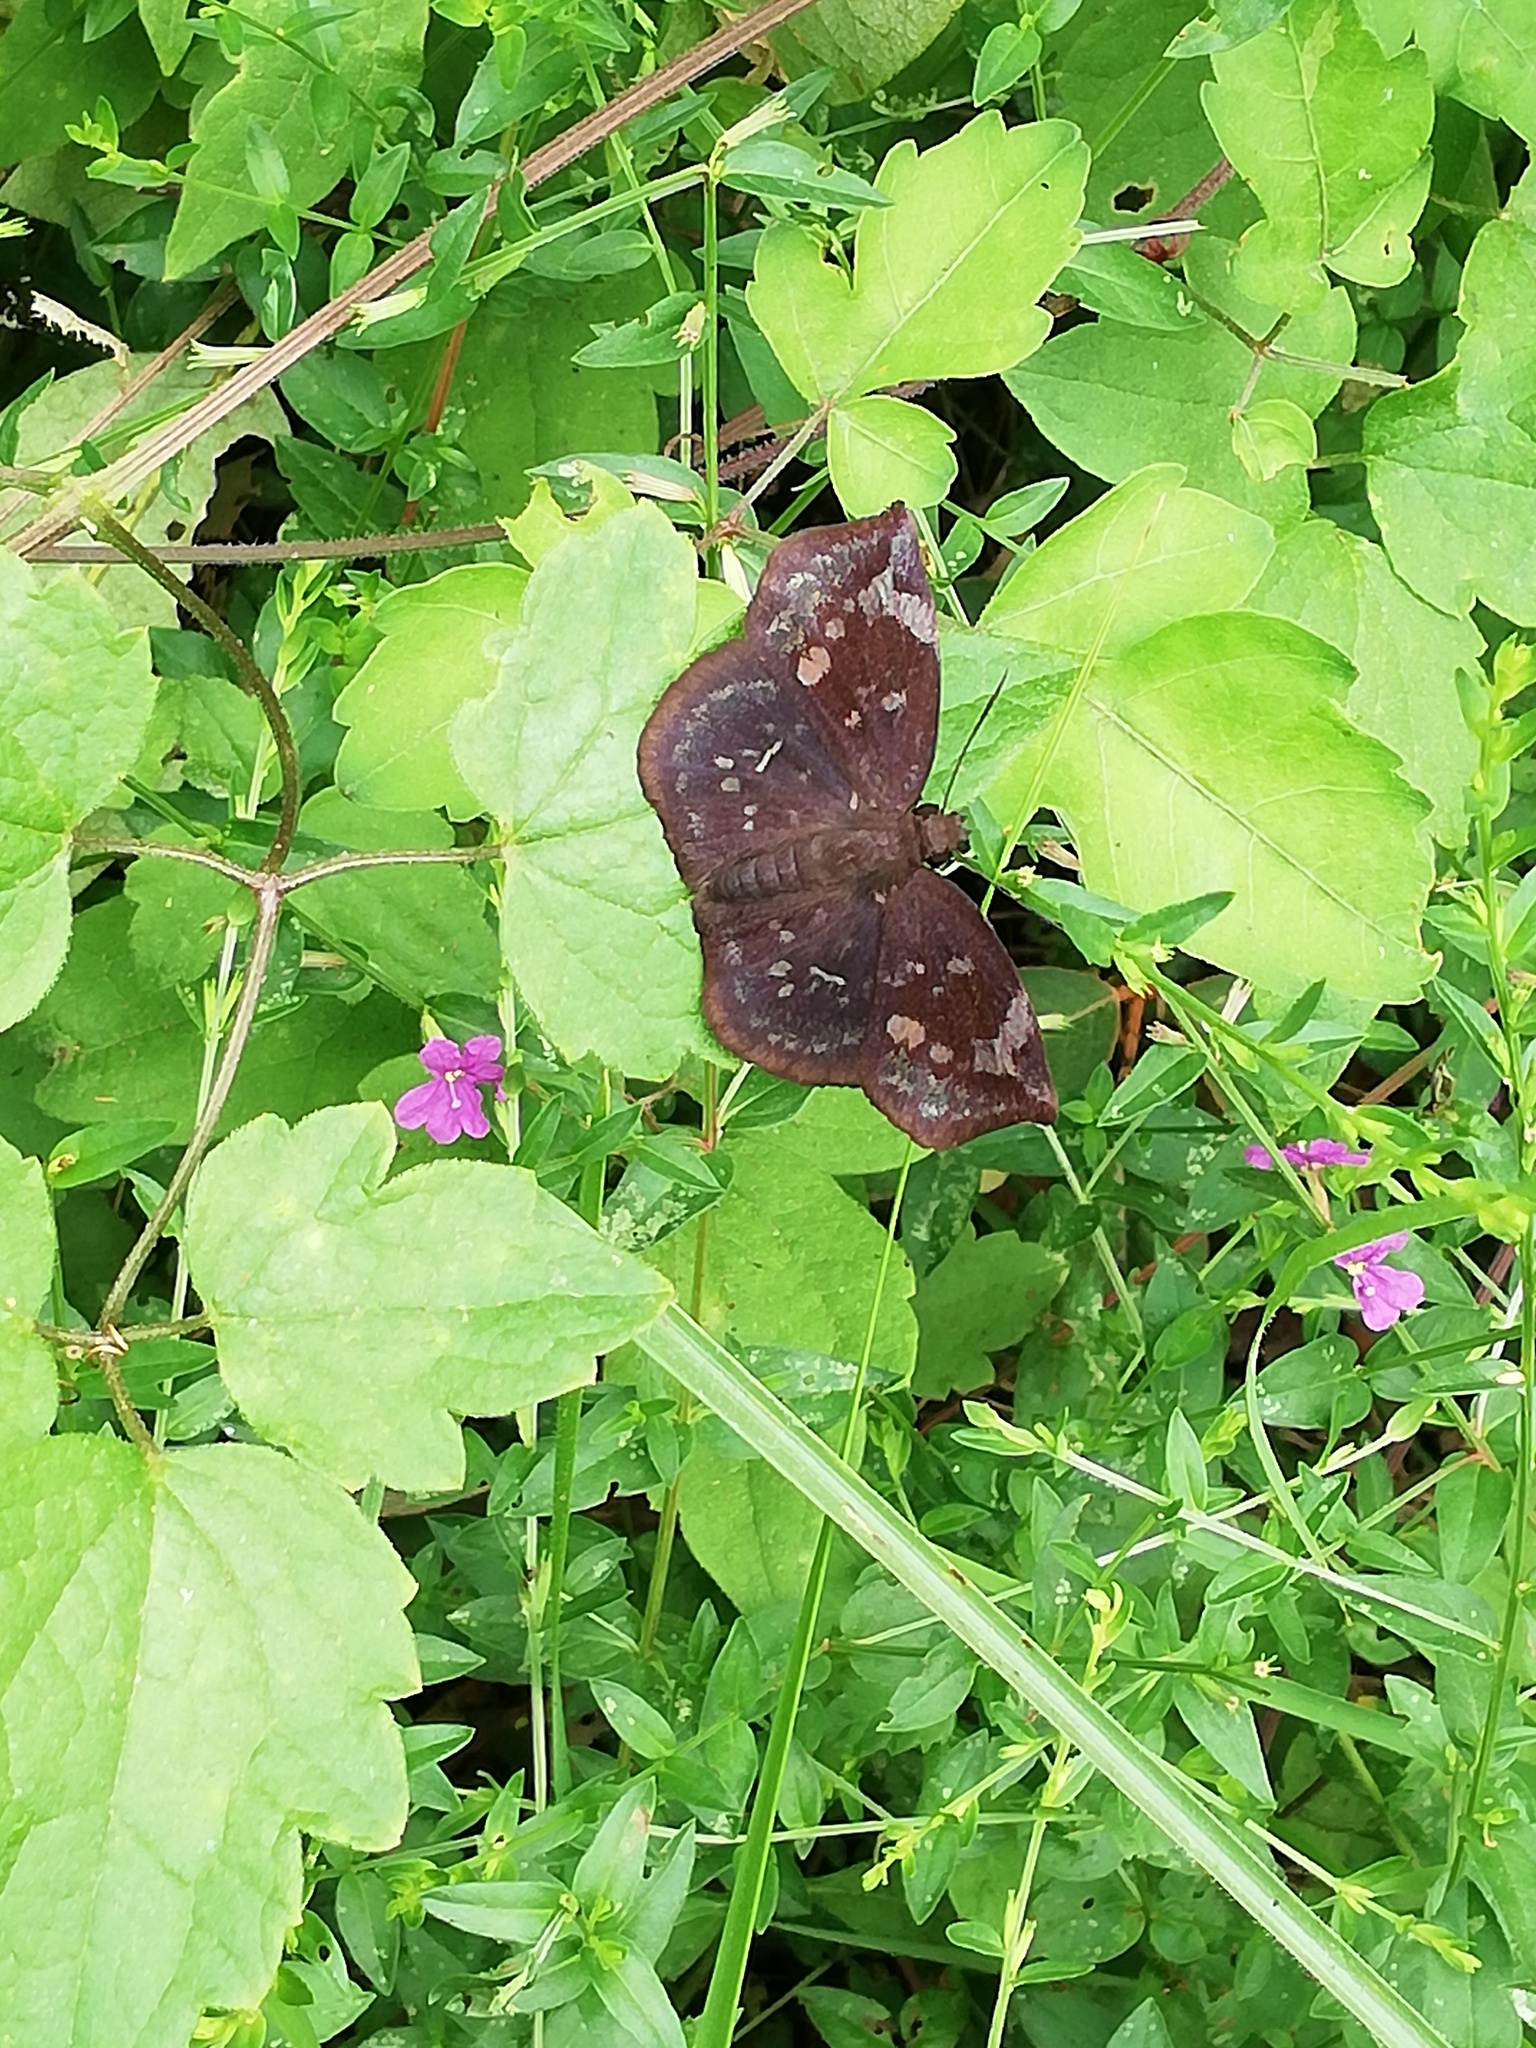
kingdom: Animalia
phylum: Arthropoda
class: Insecta
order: Lepidoptera
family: Hesperiidae
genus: Achlyodes
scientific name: Achlyodes thraso
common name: Sickle-winged skipper
